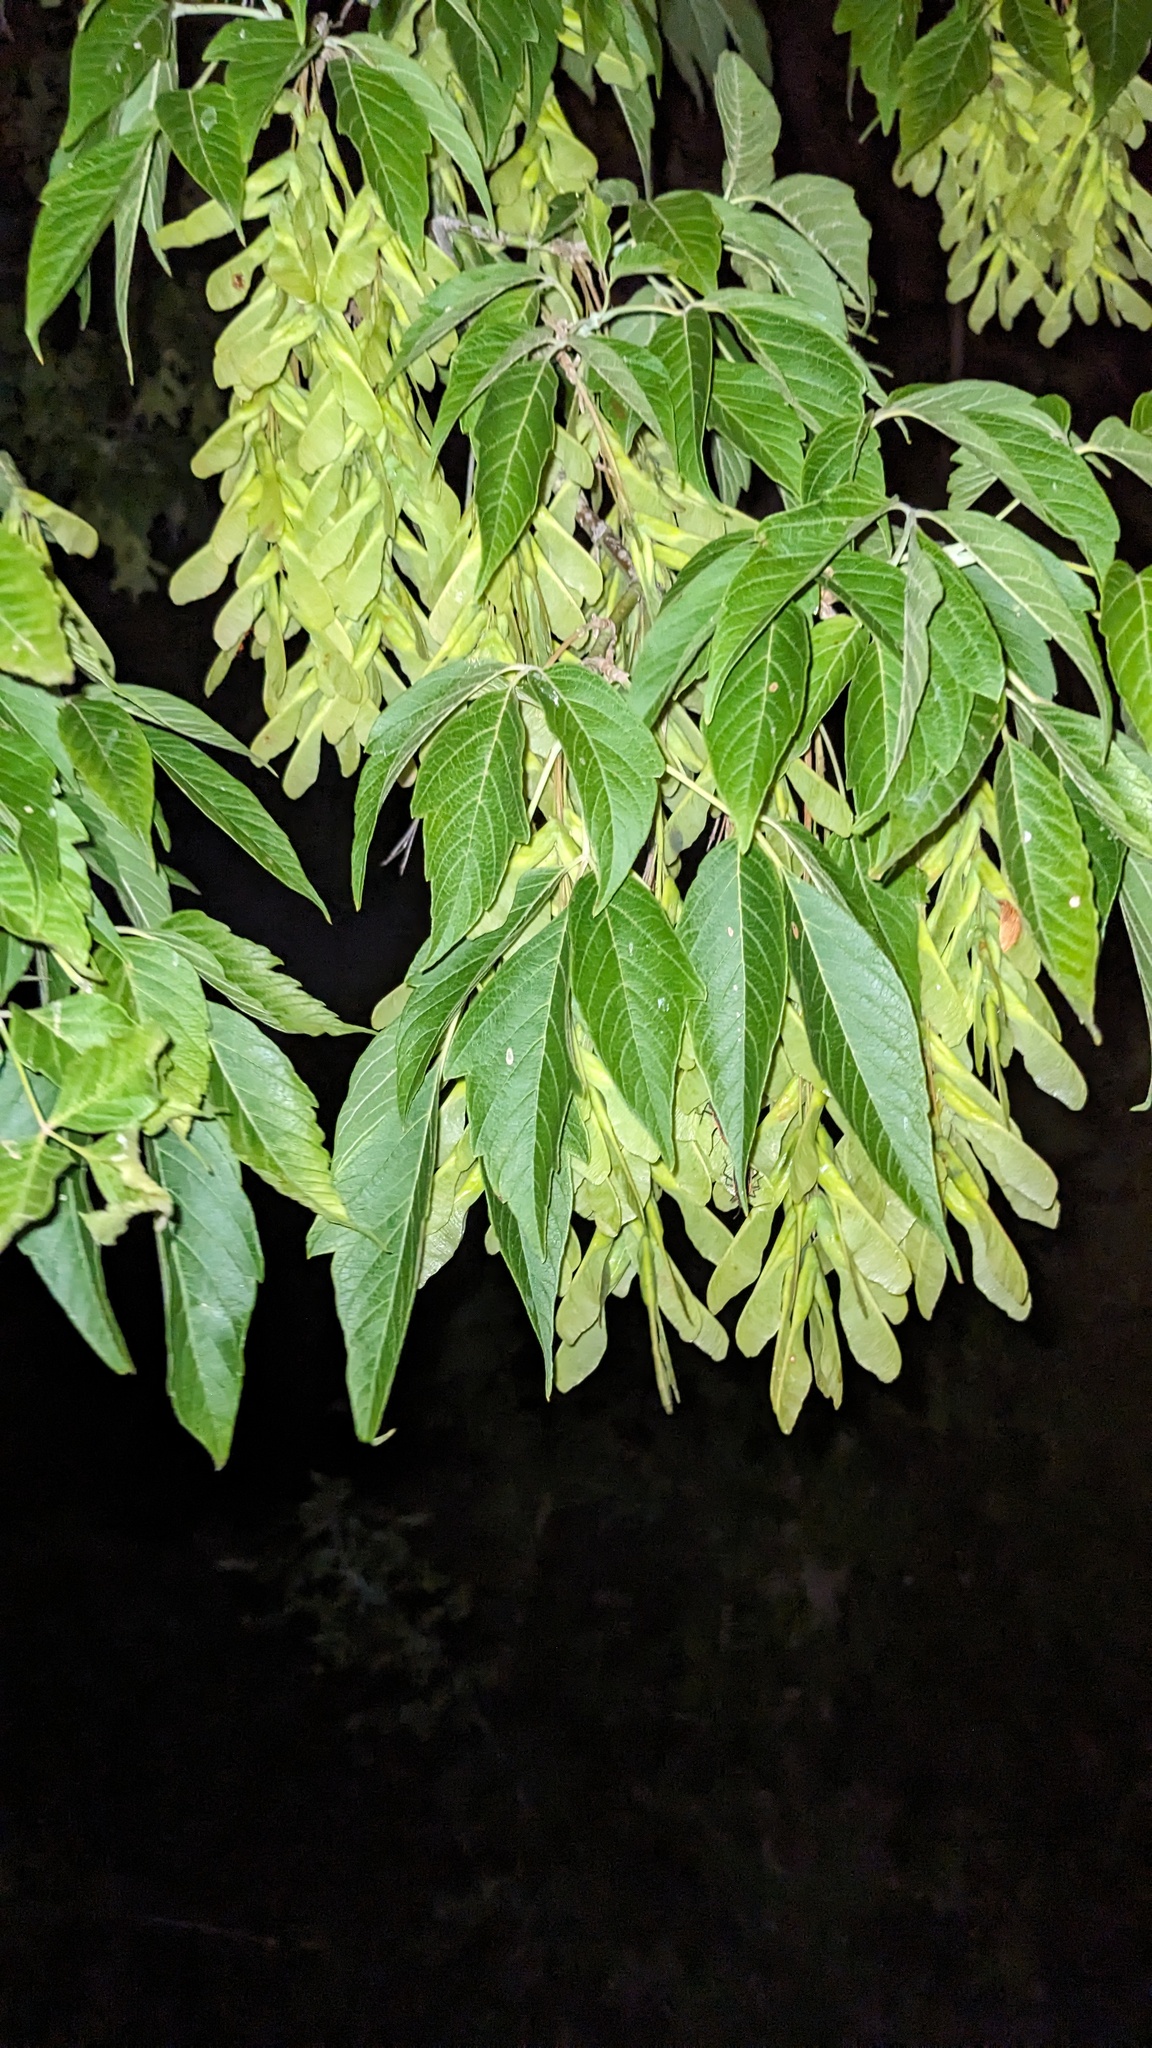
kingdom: Plantae
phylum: Tracheophyta
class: Magnoliopsida
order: Sapindales
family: Sapindaceae
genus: Acer
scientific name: Acer negundo
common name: Ashleaf maple
